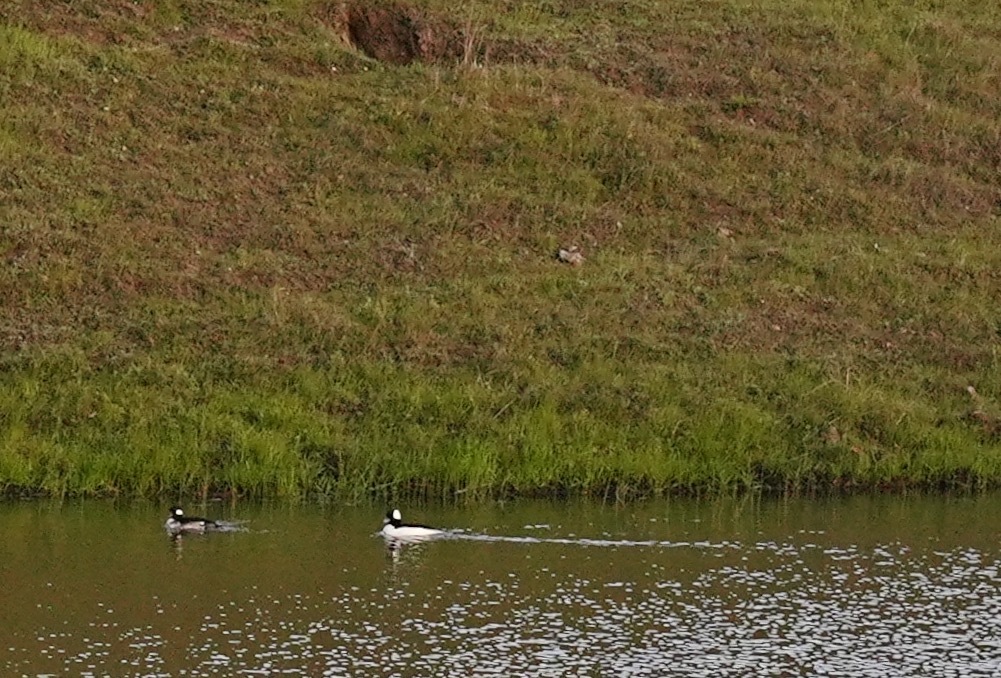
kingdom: Animalia
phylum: Chordata
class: Aves
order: Anseriformes
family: Anatidae
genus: Bucephala
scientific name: Bucephala albeola
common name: Bufflehead
